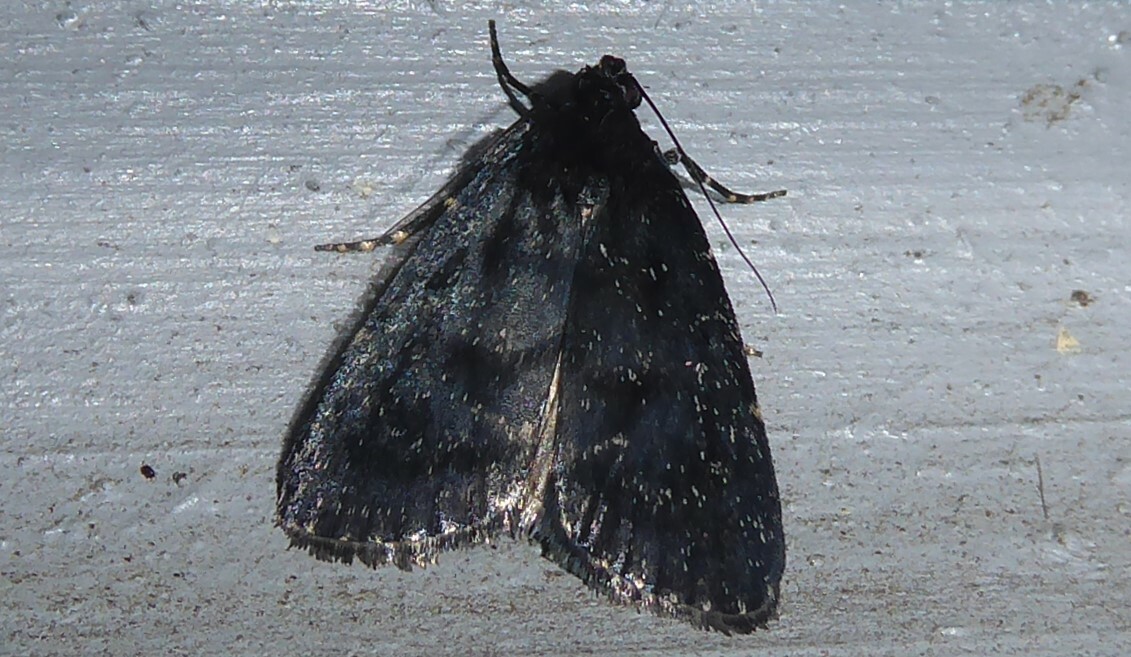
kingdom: Animalia
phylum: Arthropoda
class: Insecta
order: Lepidoptera
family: Pyralidae
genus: Stericta
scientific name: Stericta carbonalis
